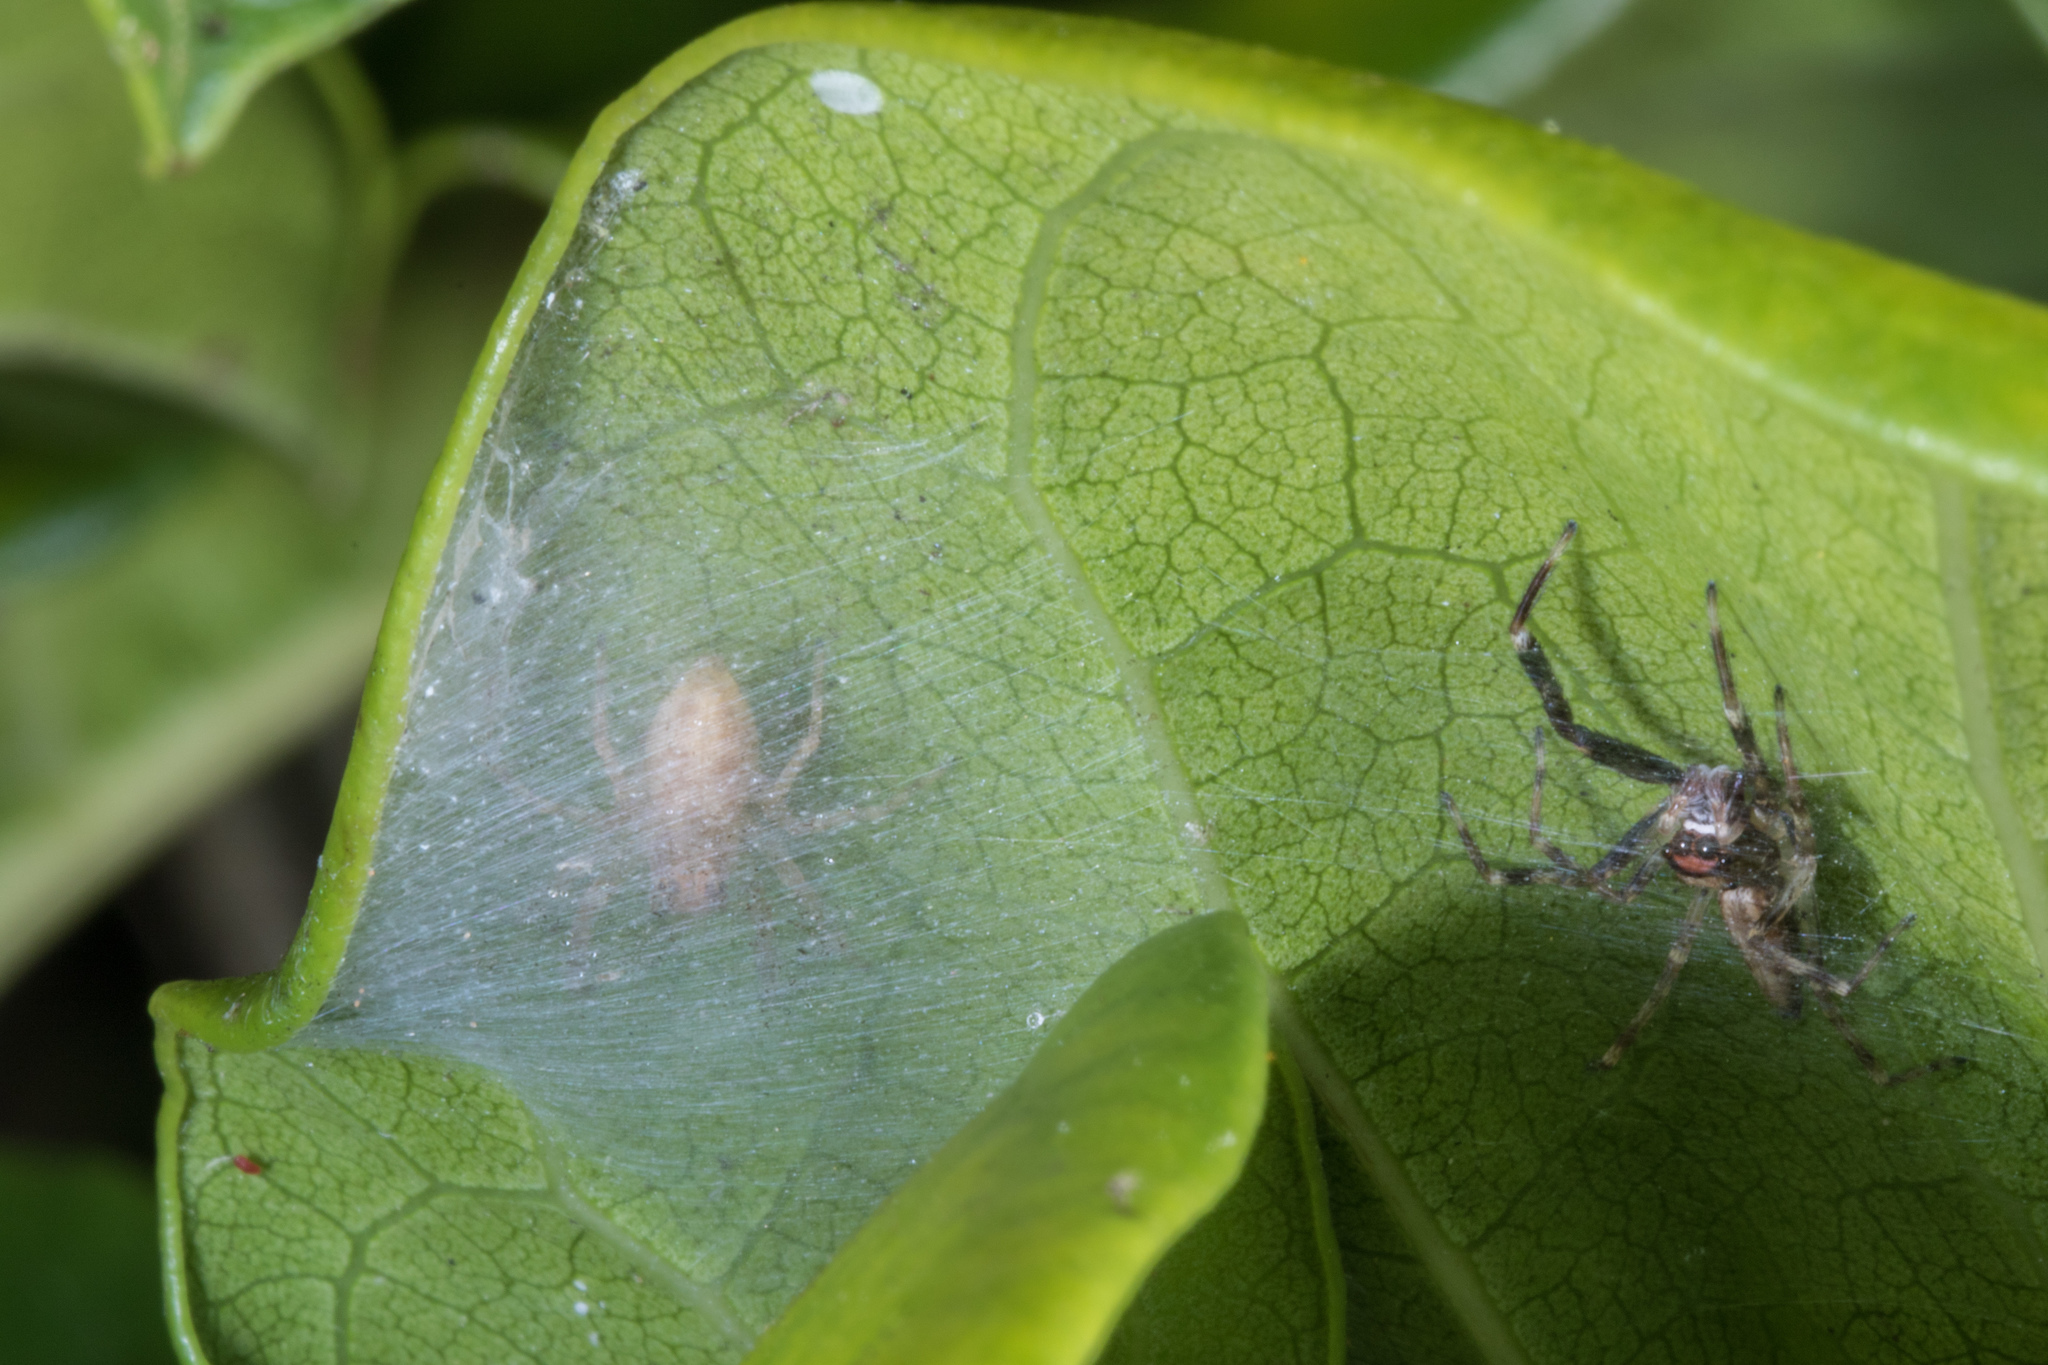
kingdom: Animalia
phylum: Arthropoda
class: Arachnida
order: Araneae
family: Salticidae
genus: Helpis
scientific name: Helpis minitabunda
